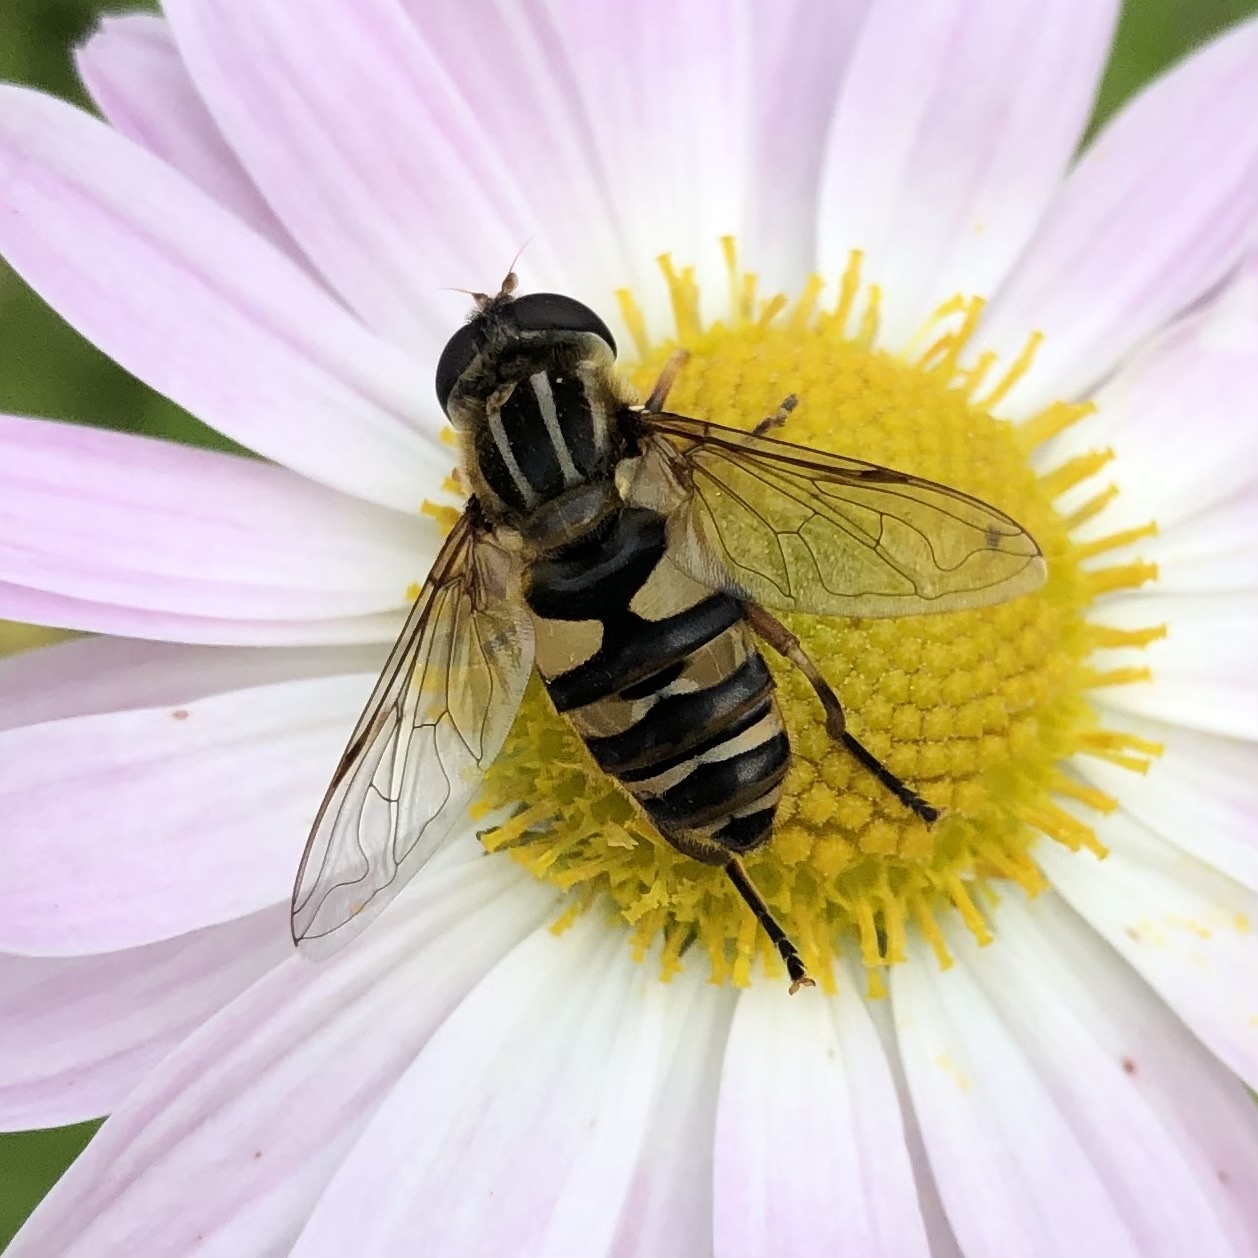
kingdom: Animalia
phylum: Arthropoda
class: Insecta
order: Diptera
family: Syrphidae
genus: Helophilus
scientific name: Helophilus fasciatus
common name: Narrow-headed marsh fly
